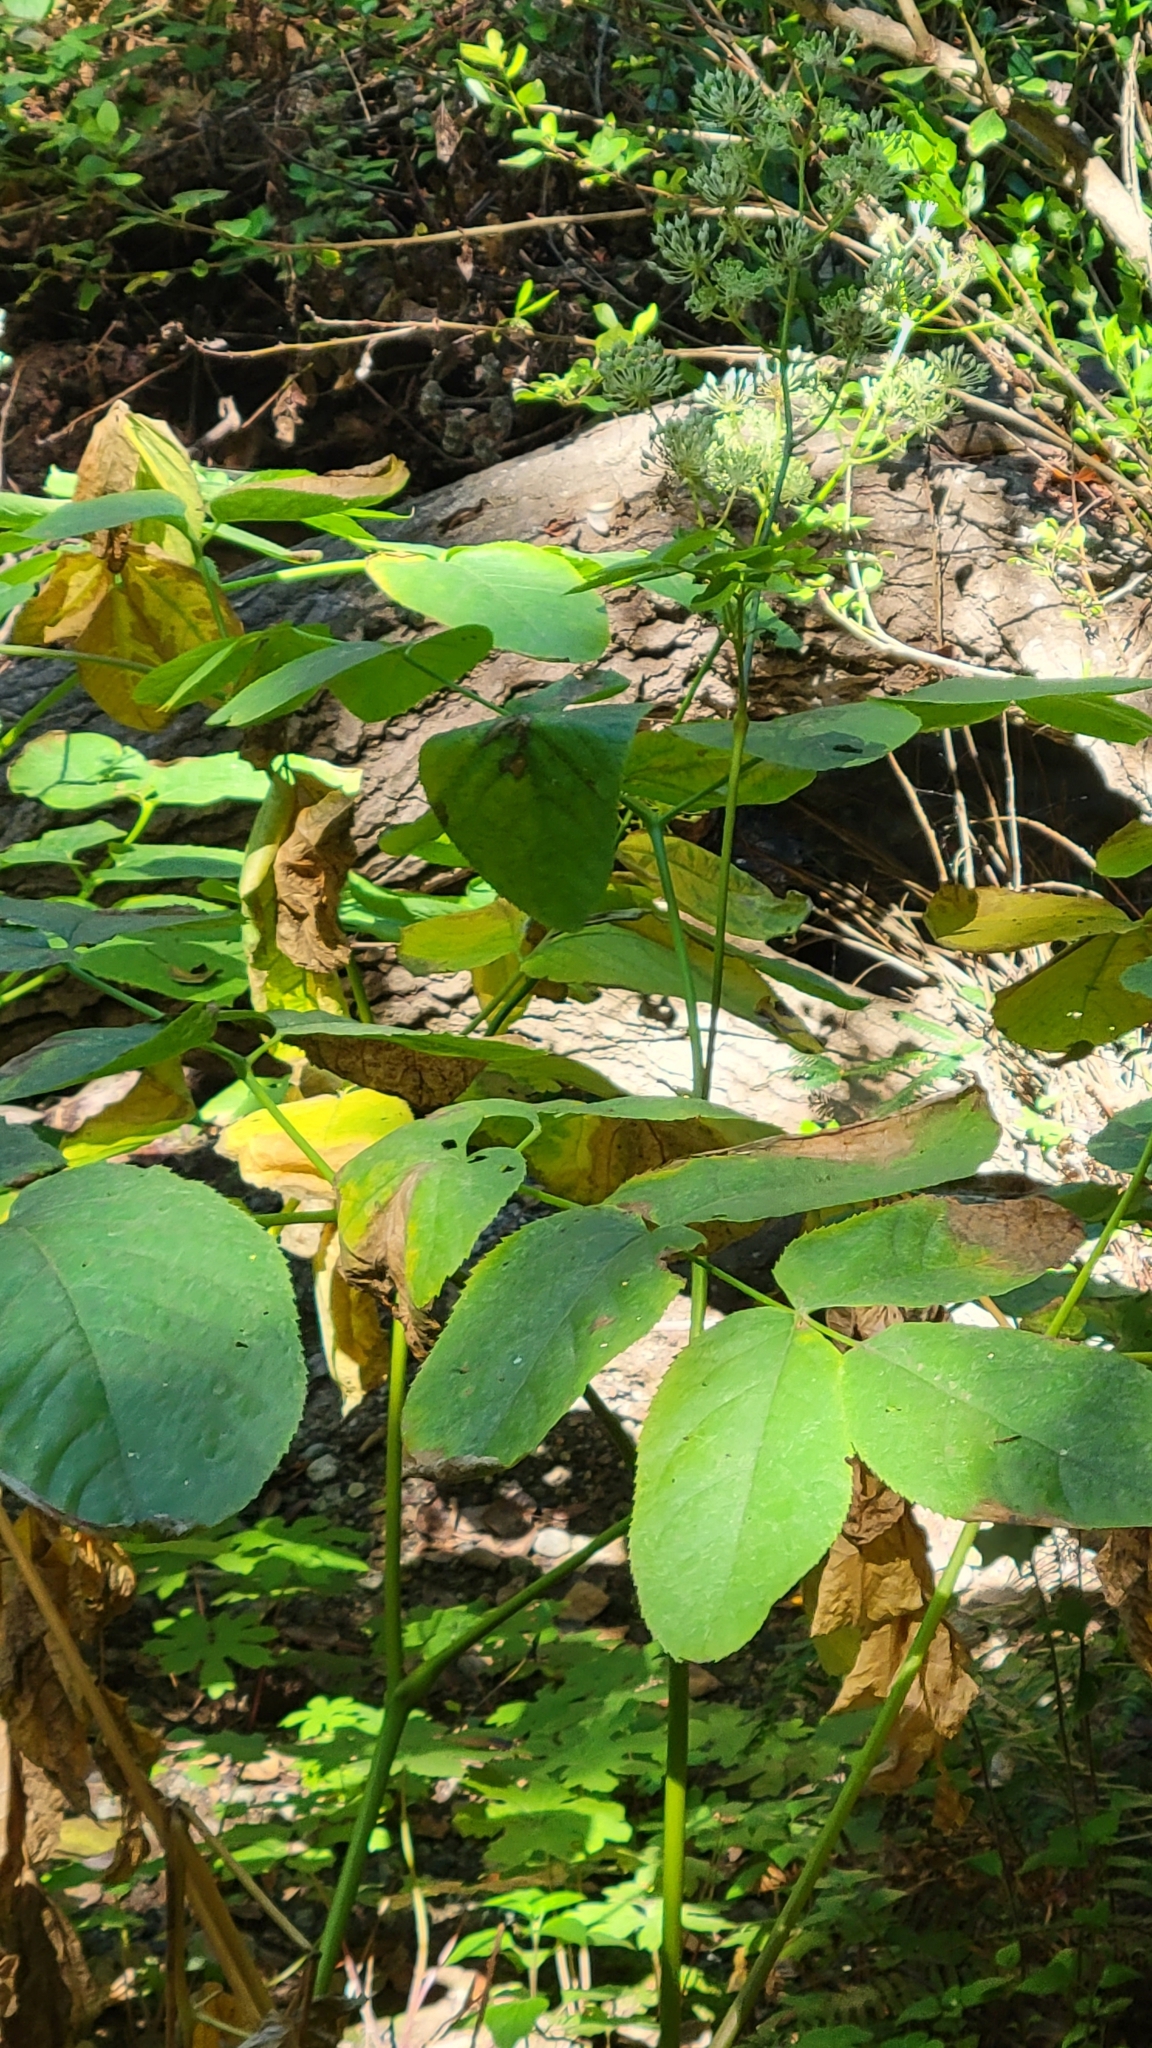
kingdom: Plantae
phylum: Tracheophyta
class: Magnoliopsida
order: Apiales
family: Araliaceae
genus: Aralia
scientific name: Aralia californica
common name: California-ginseng
